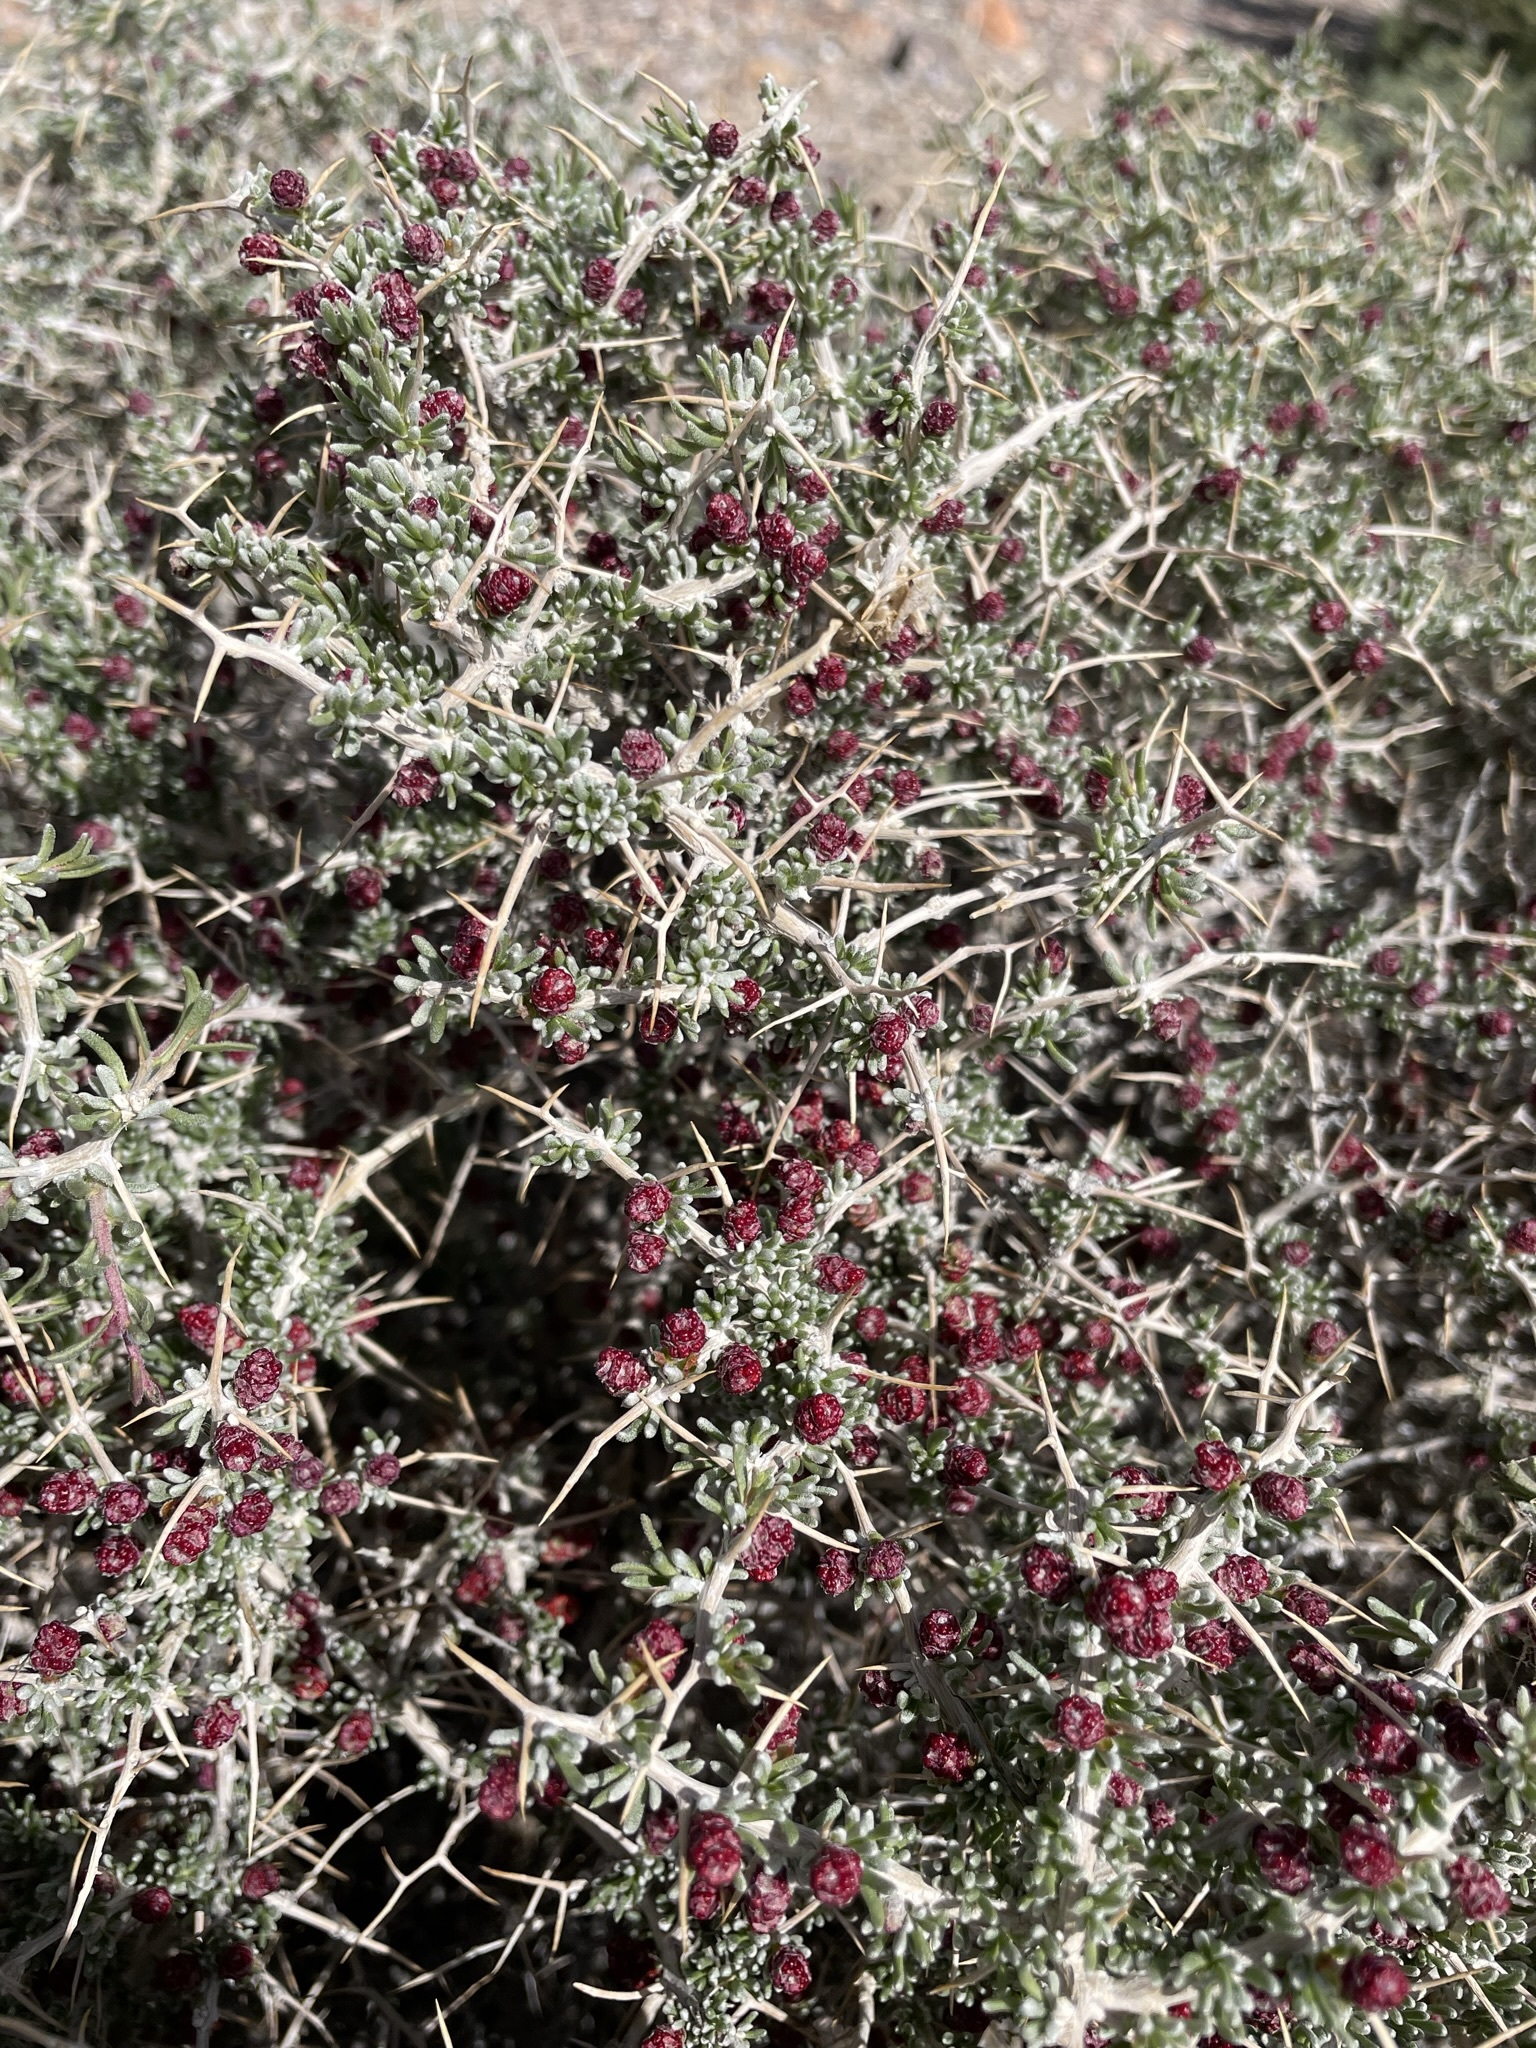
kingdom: Plantae
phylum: Tracheophyta
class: Magnoliopsida
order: Caryophyllales
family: Sarcobataceae
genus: Sarcobatus
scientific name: Sarcobatus baileyi
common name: Bailey greasewood
